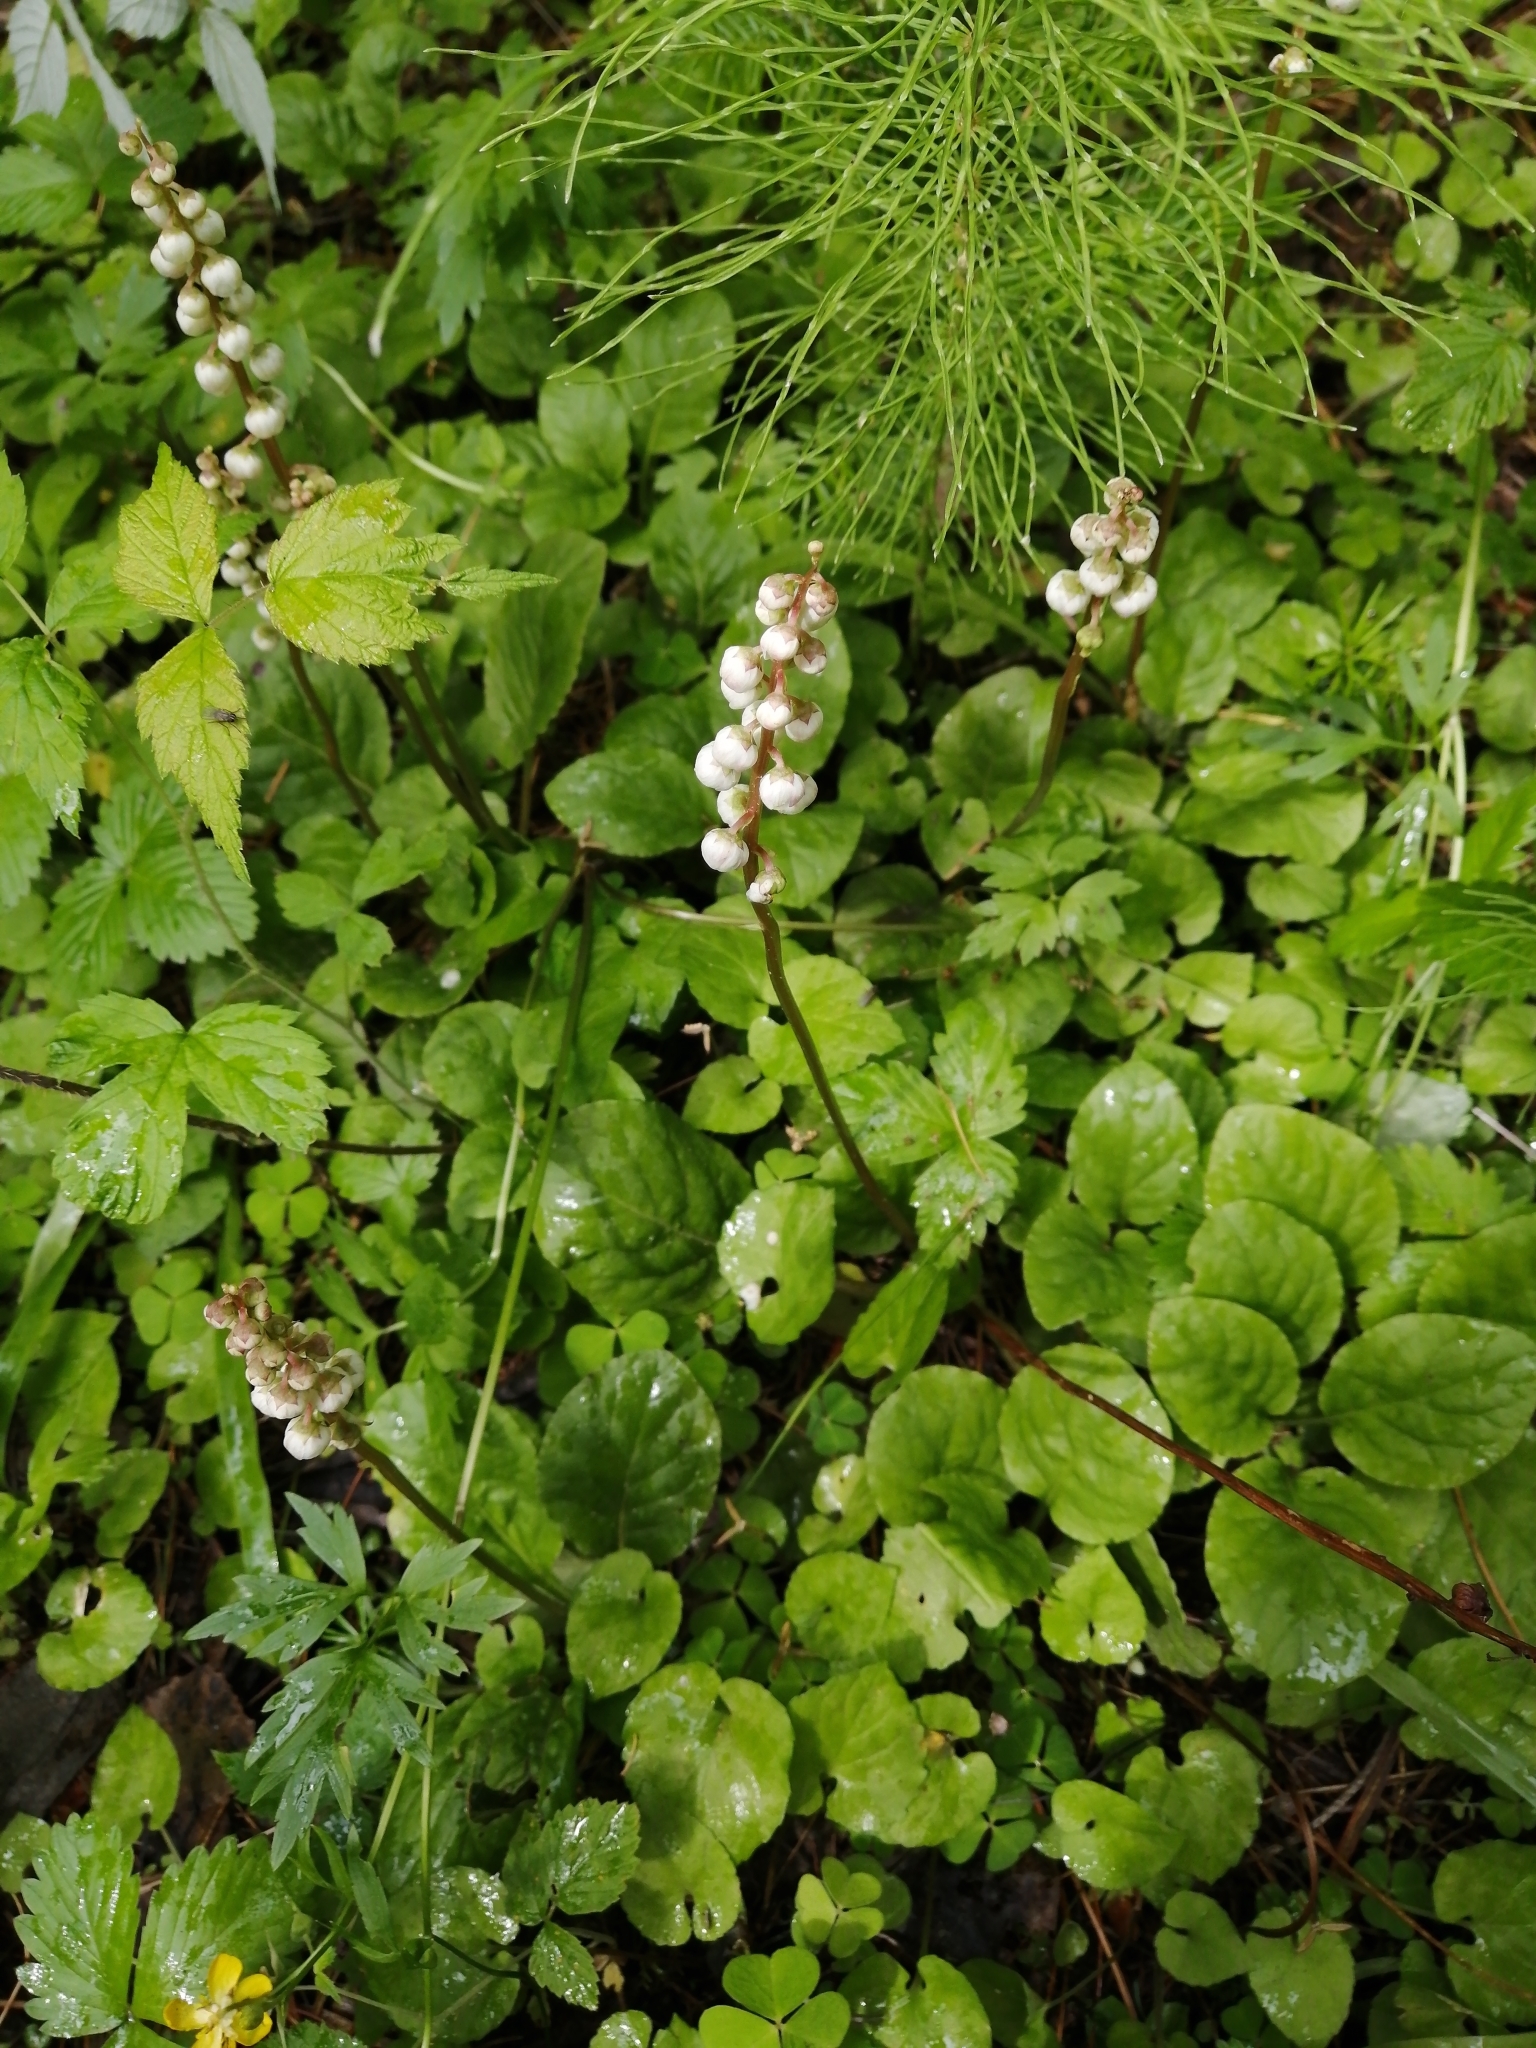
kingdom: Plantae
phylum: Tracheophyta
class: Magnoliopsida
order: Ericales
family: Ericaceae
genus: Pyrola
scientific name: Pyrola minor
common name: Common wintergreen
